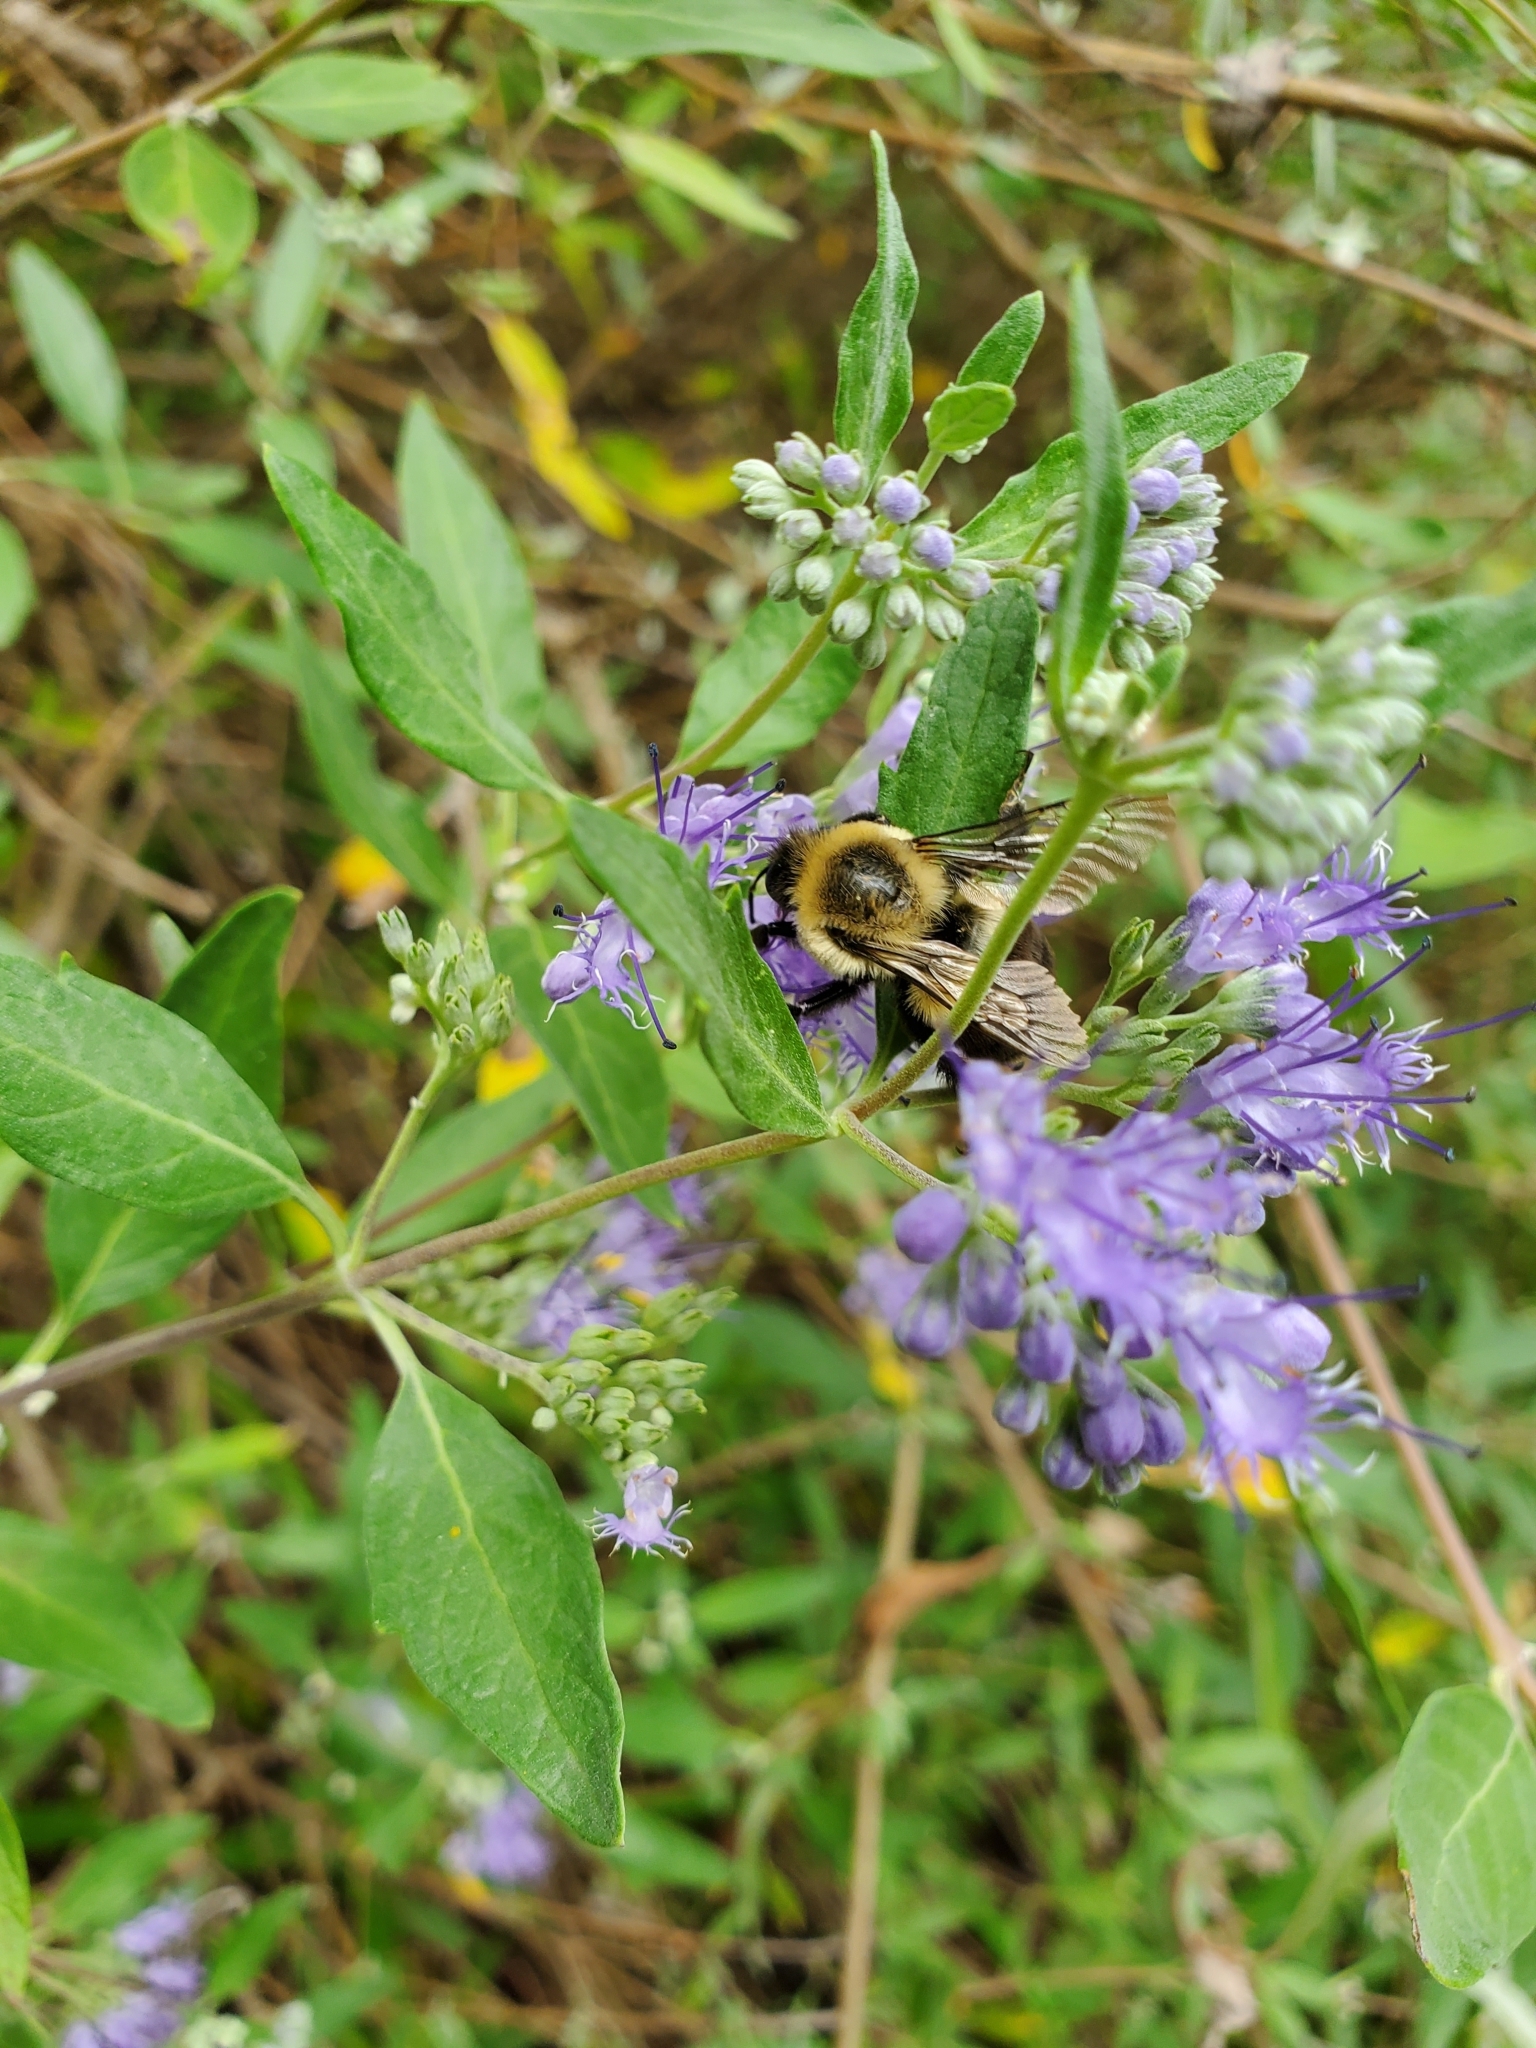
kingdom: Animalia
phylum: Arthropoda
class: Insecta
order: Hymenoptera
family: Apidae
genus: Bombus
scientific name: Bombus impatiens
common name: Common eastern bumble bee
